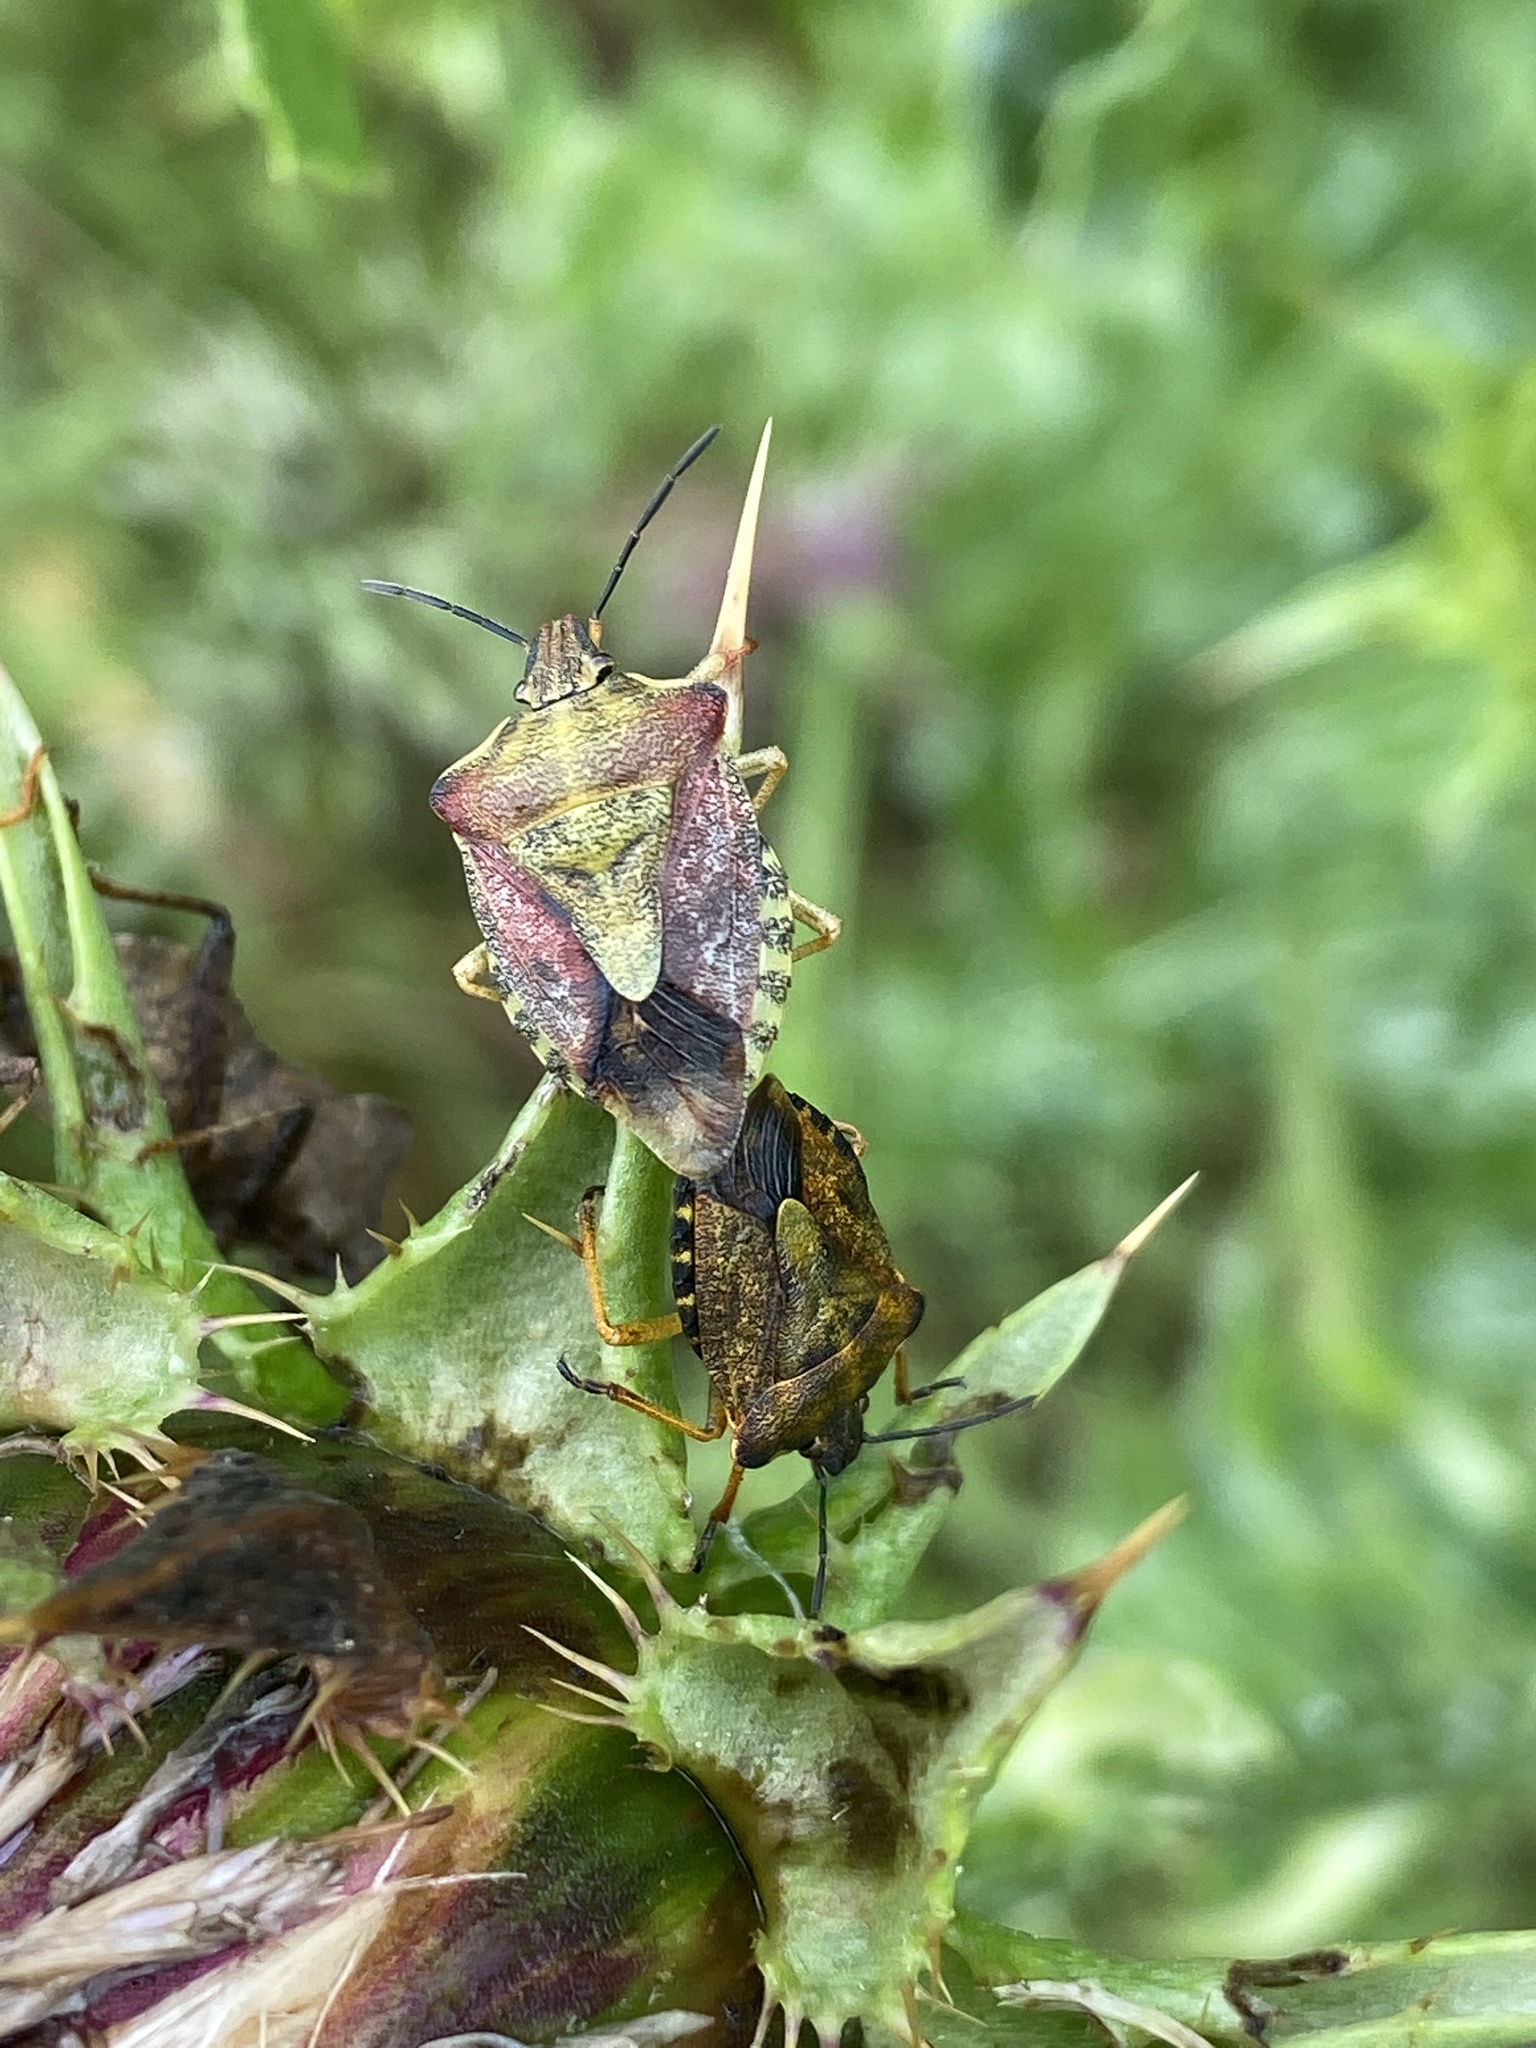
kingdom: Animalia
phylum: Arthropoda
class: Insecta
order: Hemiptera
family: Pentatomidae
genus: Carpocoris
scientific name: Carpocoris purpureipennis
